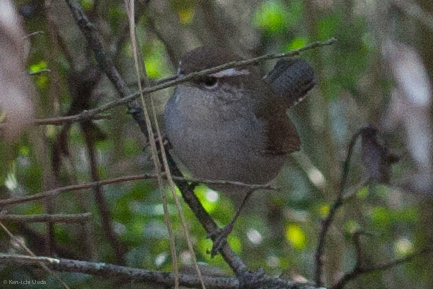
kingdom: Animalia
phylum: Chordata
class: Aves
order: Passeriformes
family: Troglodytidae
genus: Thryomanes
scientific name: Thryomanes bewickii
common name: Bewick's wren
